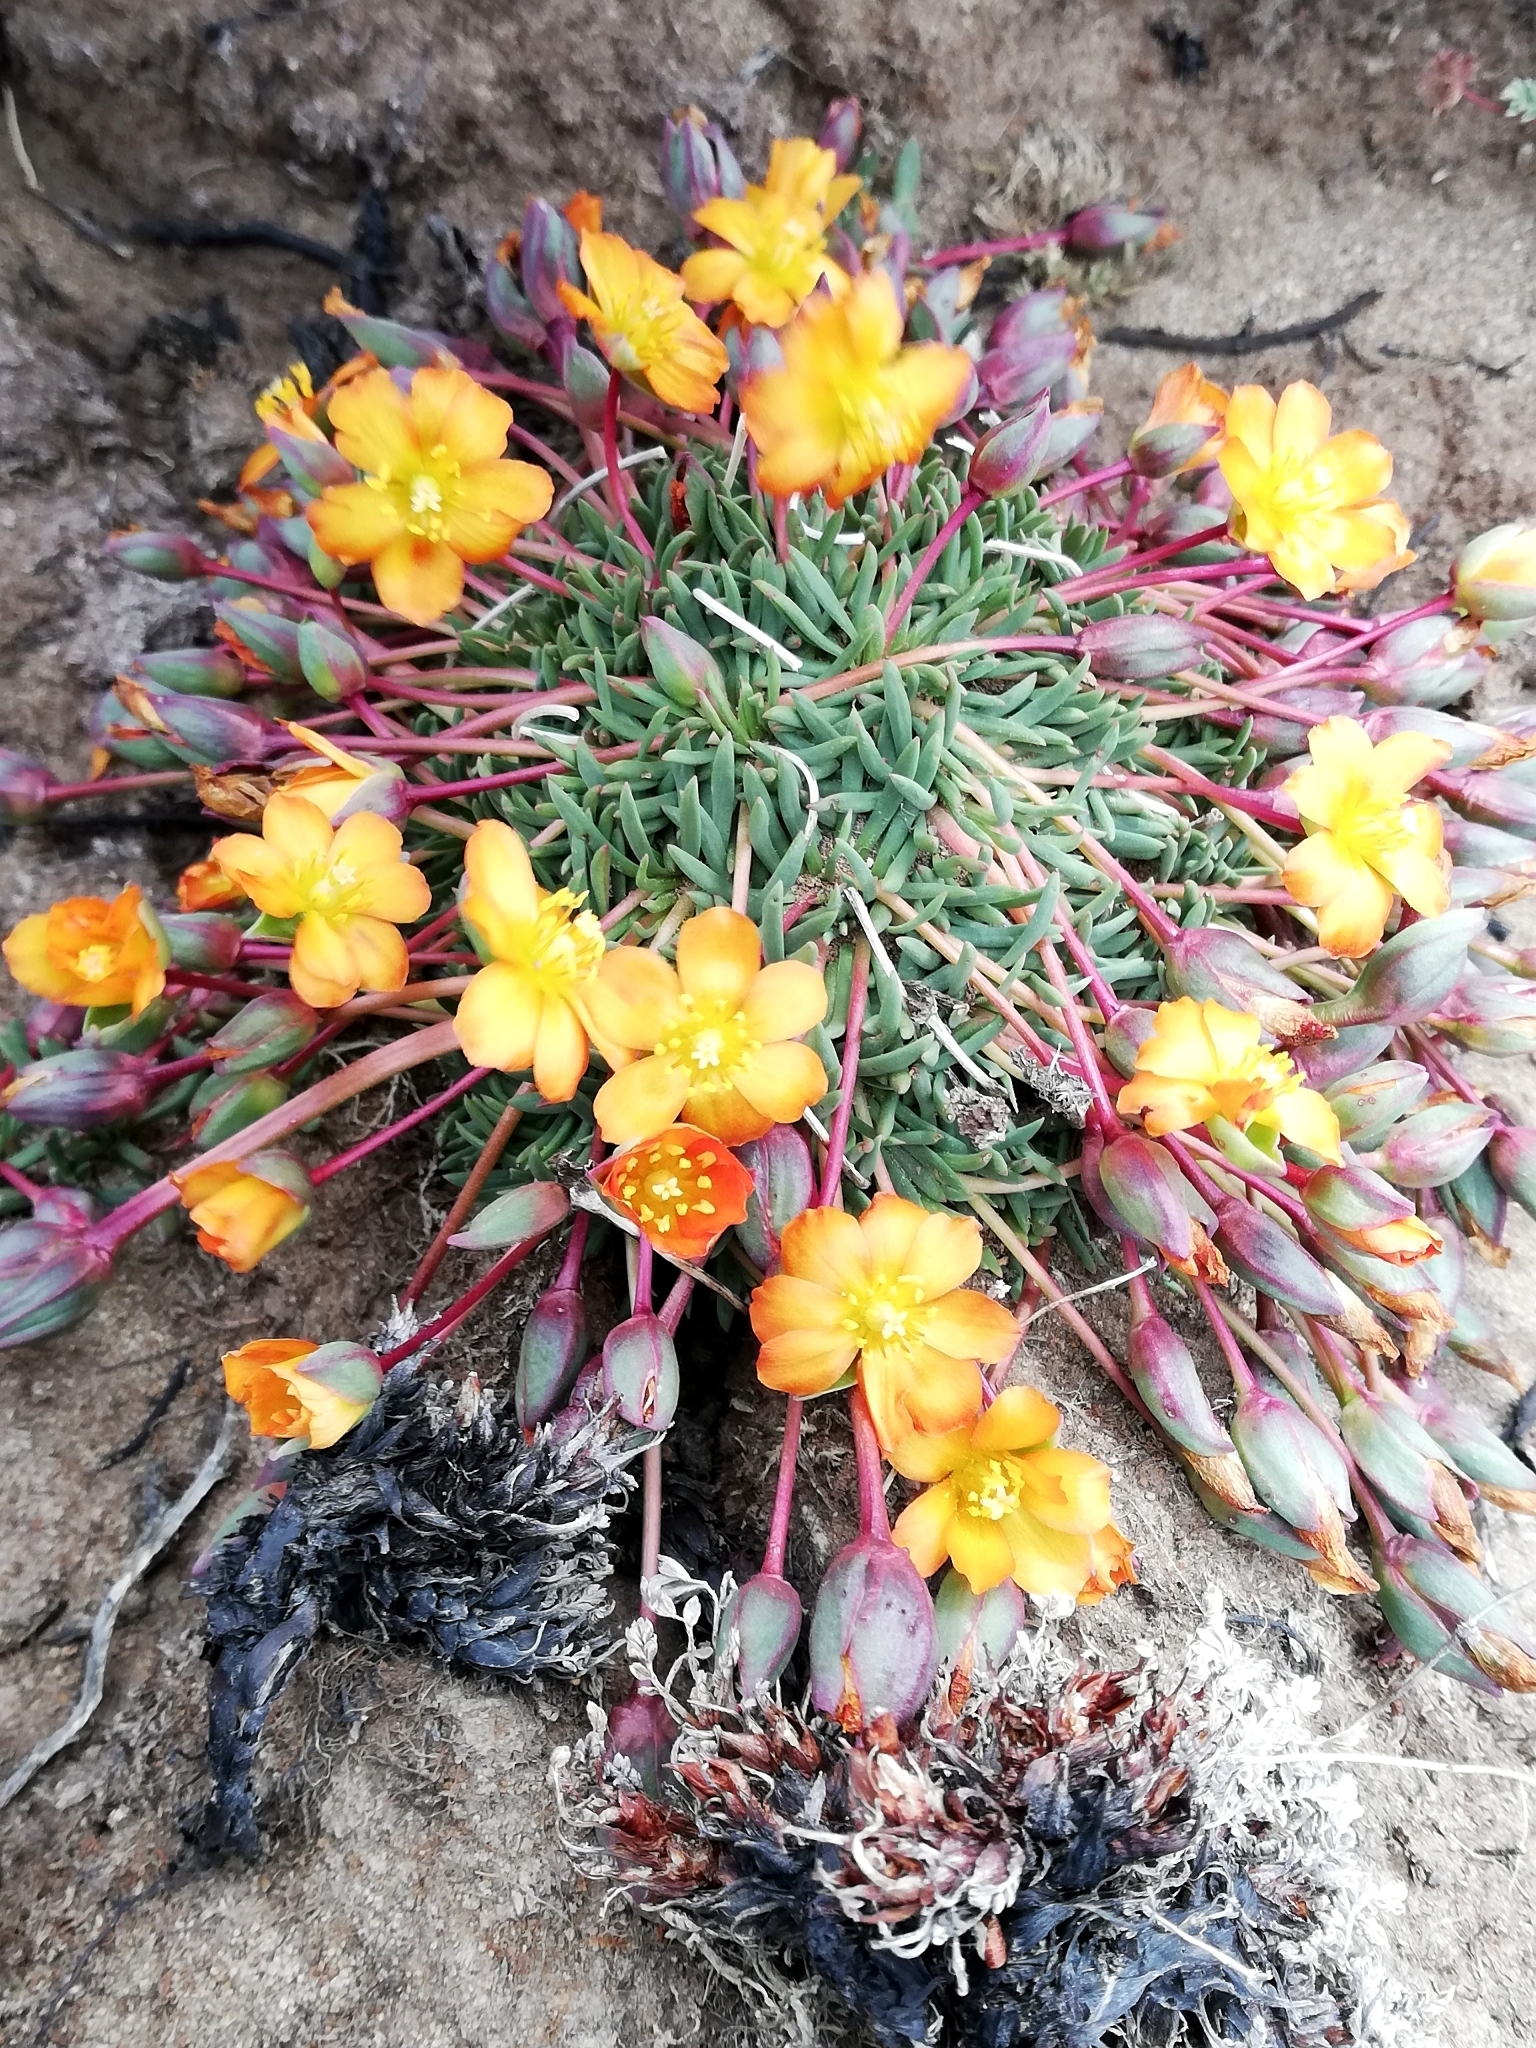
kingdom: Plantae
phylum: Tracheophyta
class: Magnoliopsida
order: Caryophyllales
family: Montiaceae
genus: Calandrinia
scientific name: Calandrinia caespitosa
